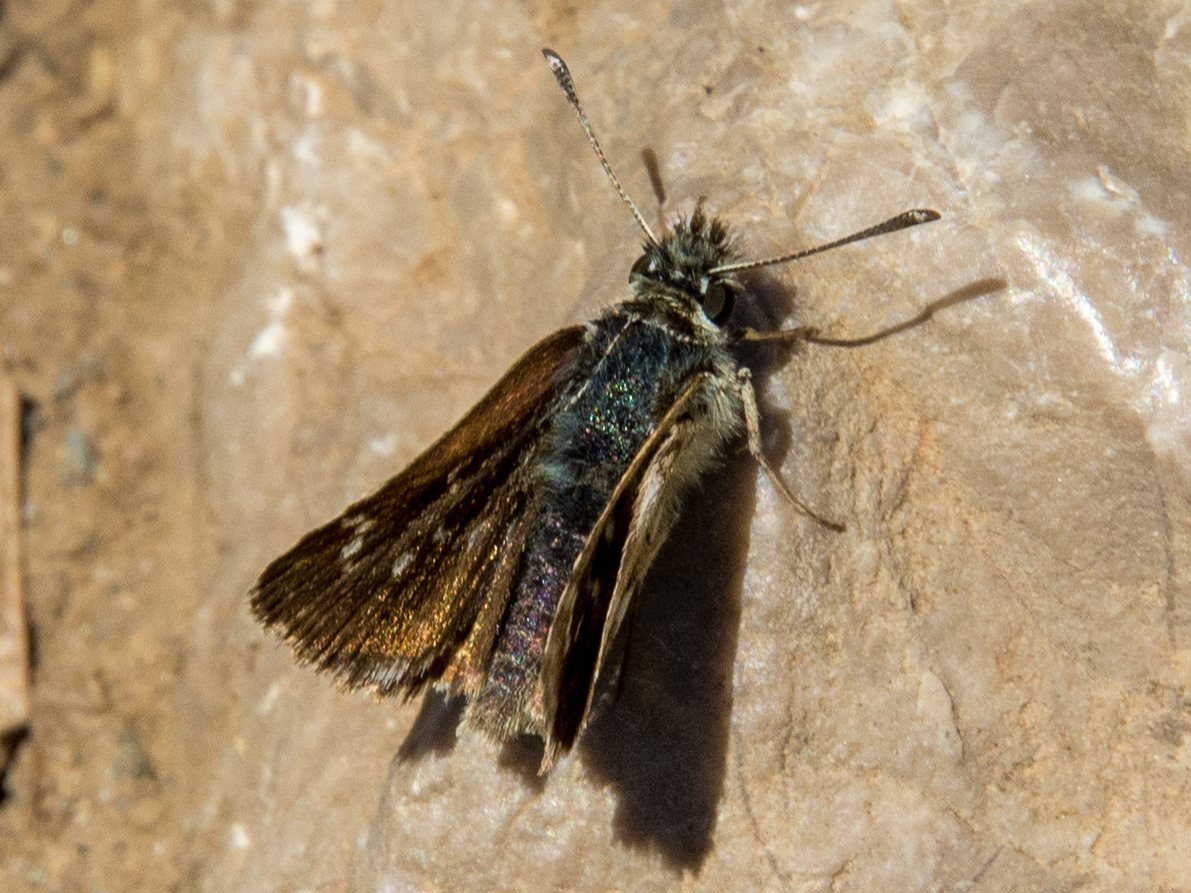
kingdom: Animalia
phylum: Arthropoda
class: Insecta
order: Lepidoptera
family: Hesperiidae
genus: Spialia
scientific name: Spialia sertorius
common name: Red underwing skipper
